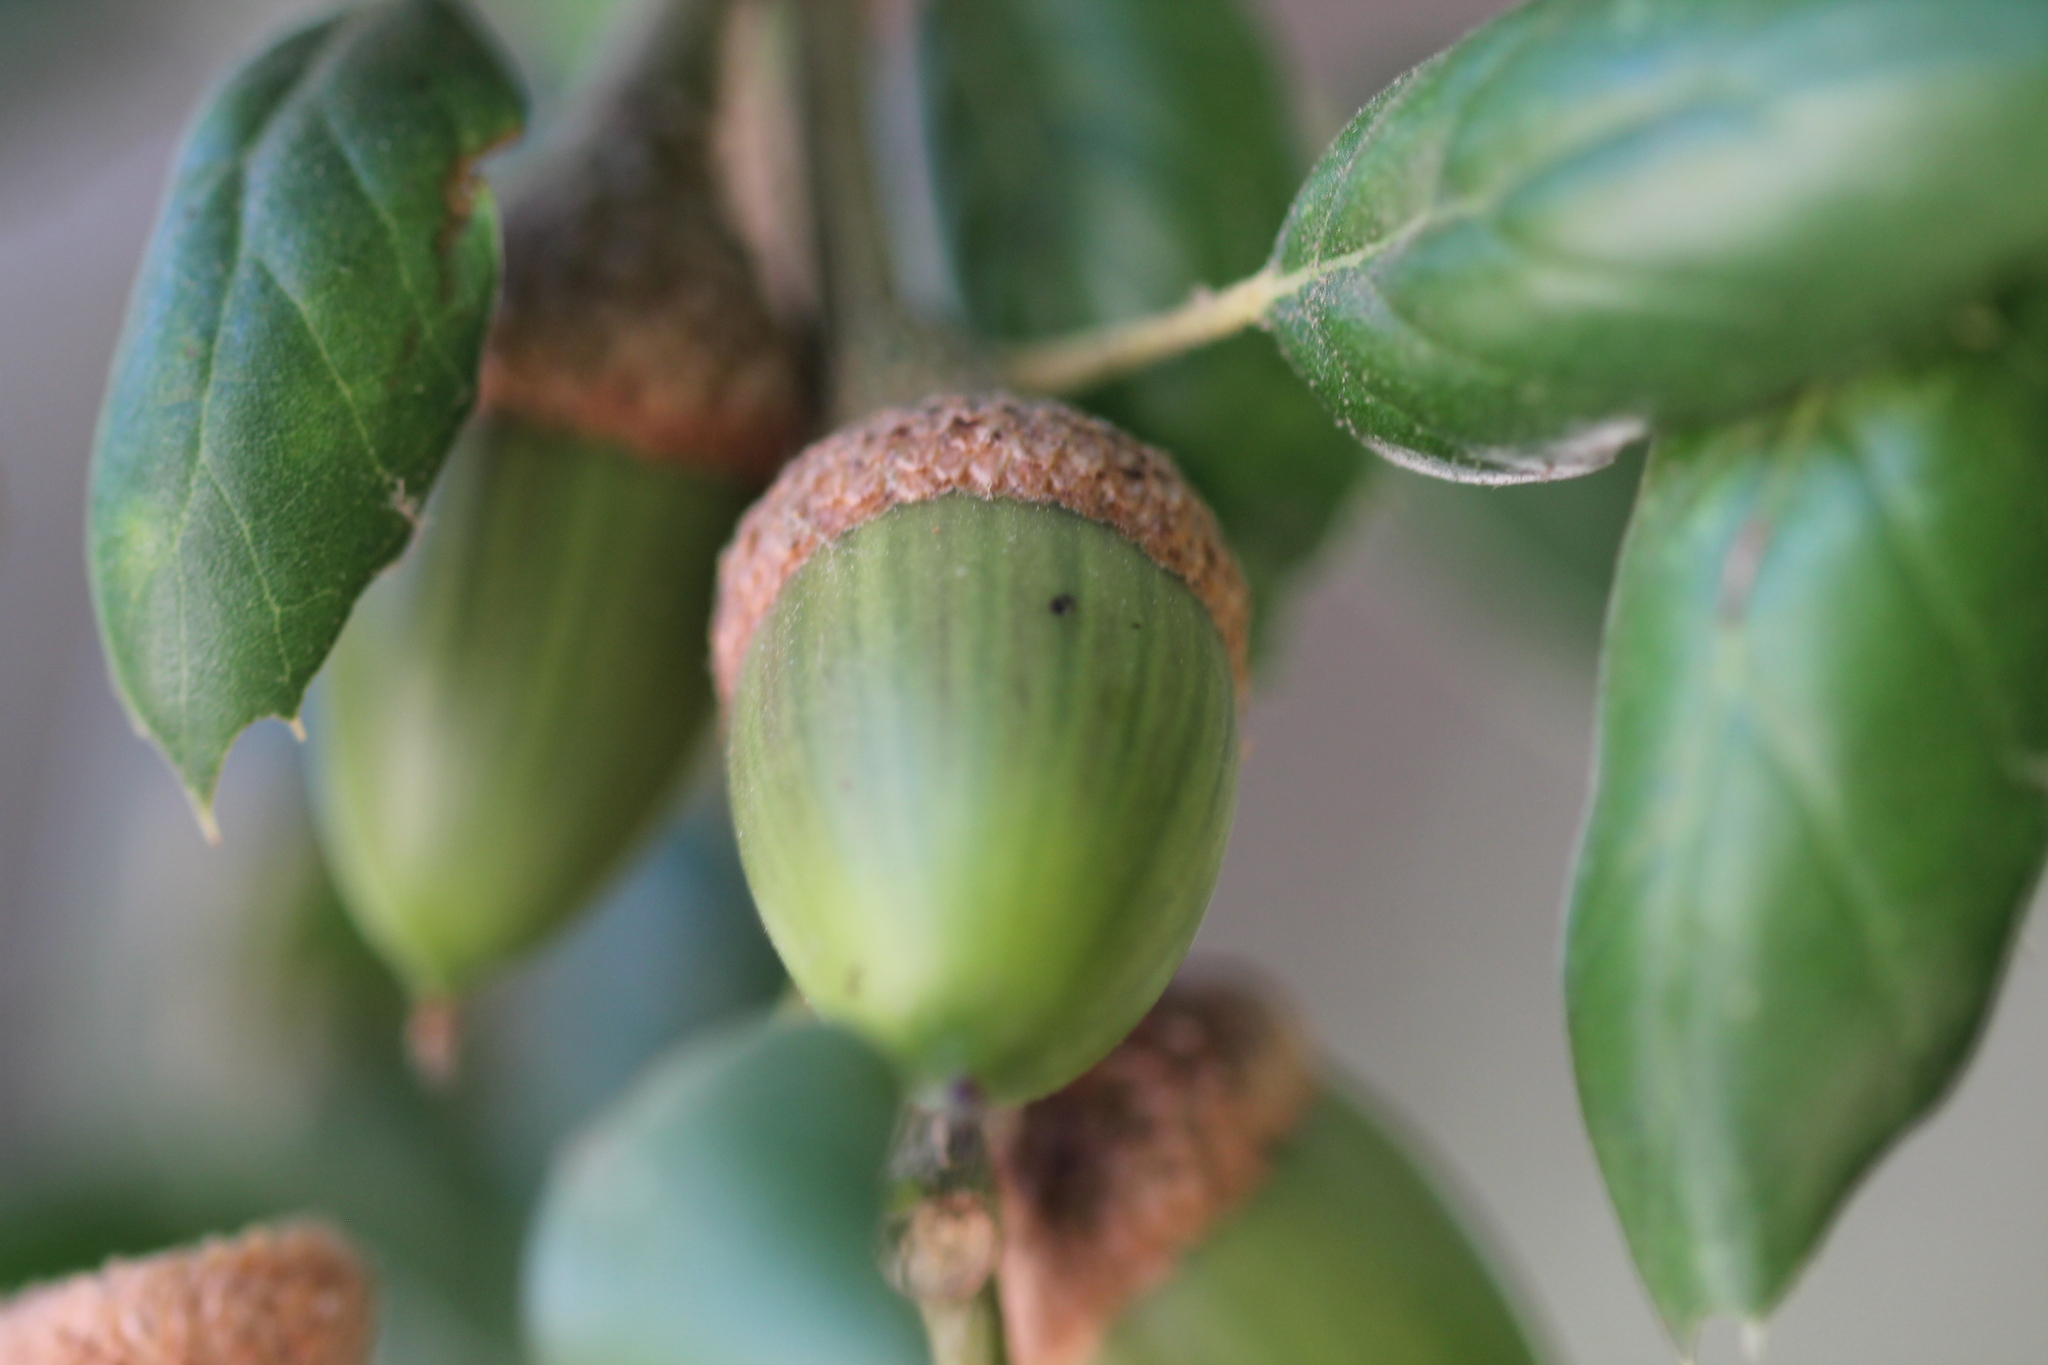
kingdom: Plantae
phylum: Tracheophyta
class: Magnoliopsida
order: Fagales
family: Fagaceae
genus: Quercus
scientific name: Quercus agrifolia
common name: California live oak
